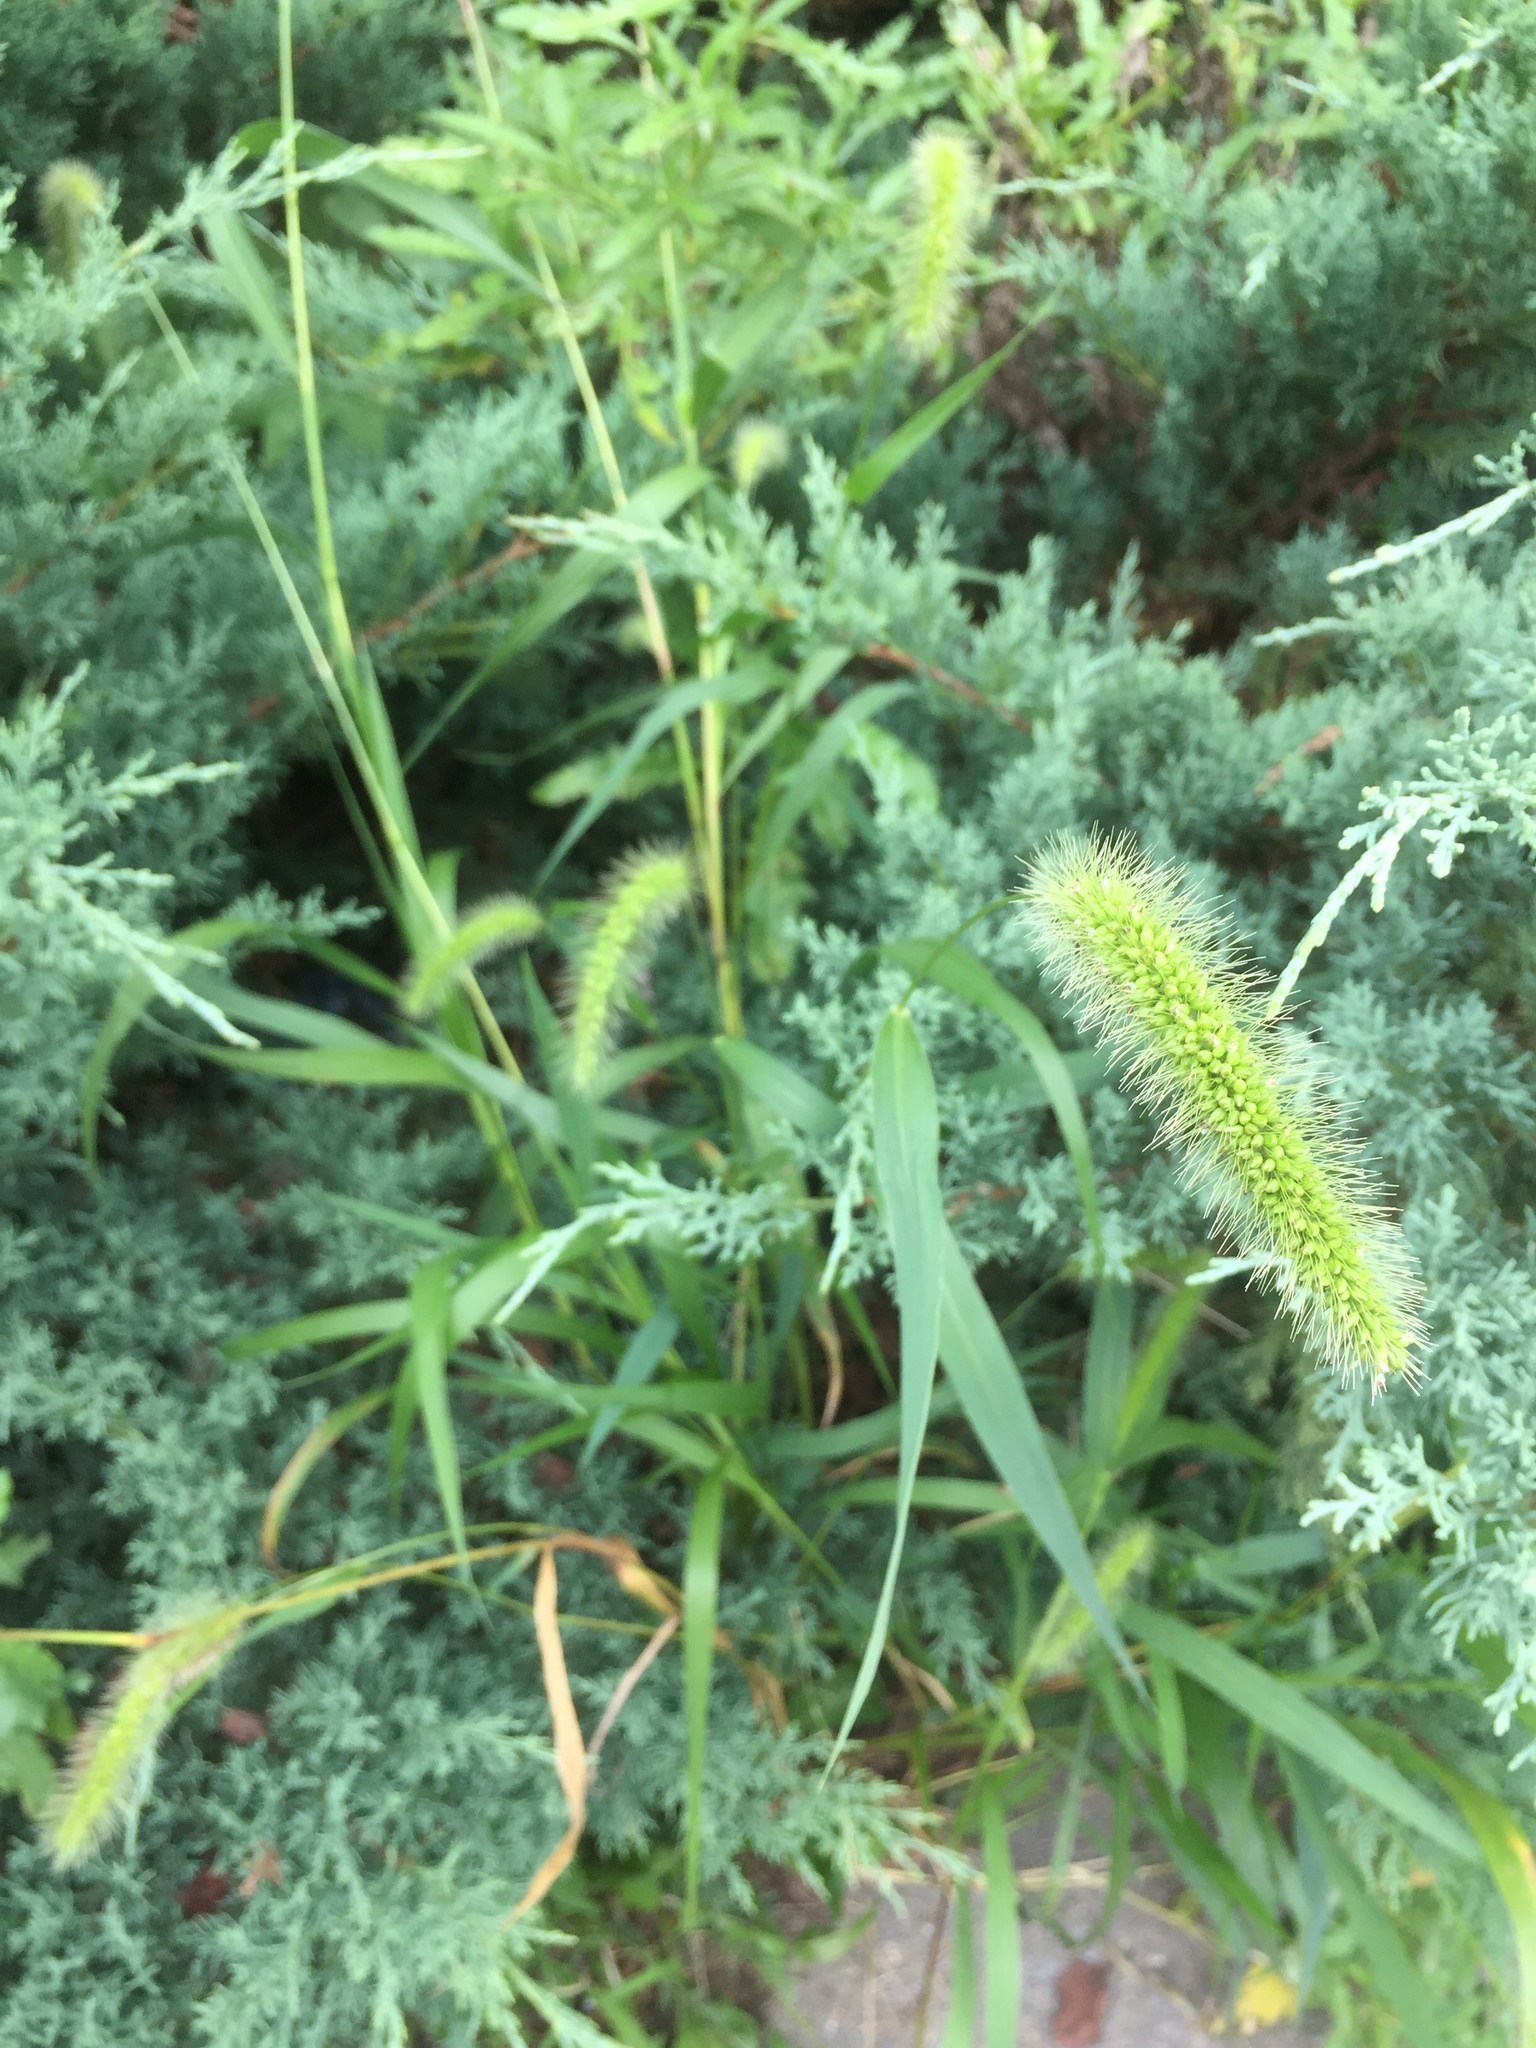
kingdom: Plantae
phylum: Tracheophyta
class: Liliopsida
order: Poales
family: Poaceae
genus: Setaria
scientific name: Setaria faberi
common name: Nodding bristle-grass
